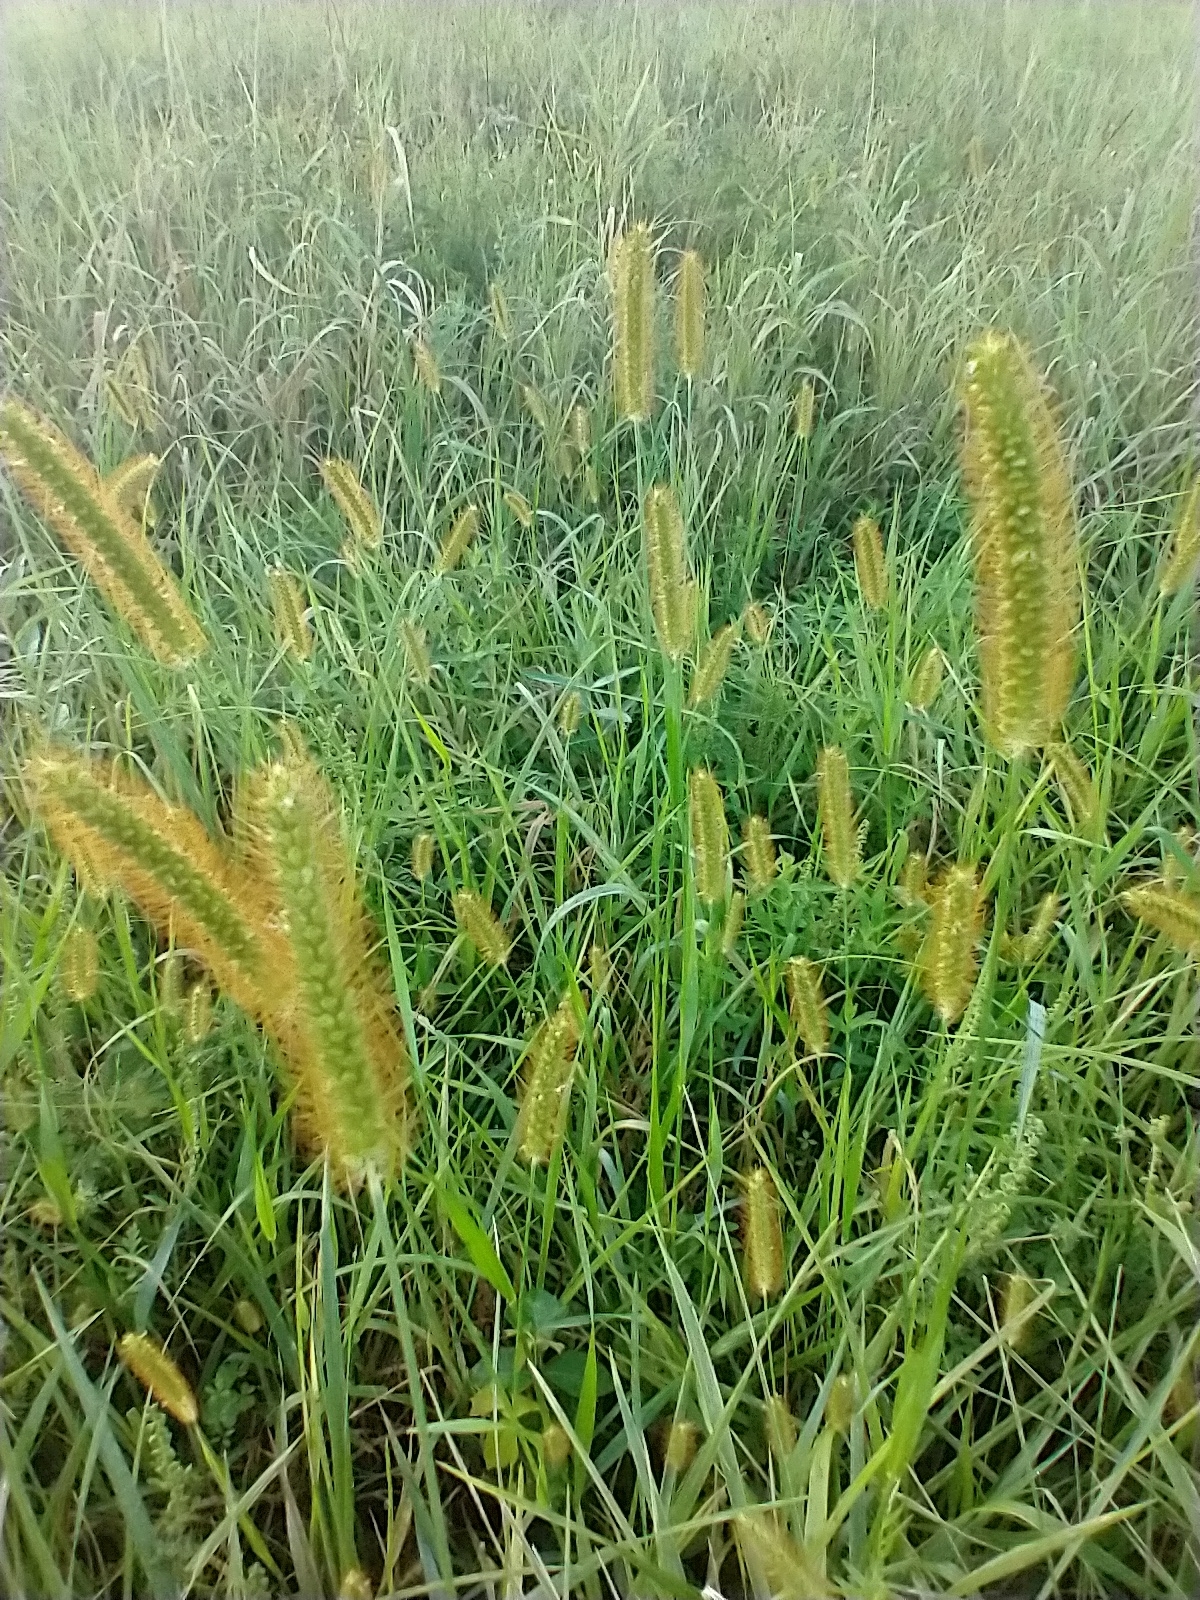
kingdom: Plantae
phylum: Tracheophyta
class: Liliopsida
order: Poales
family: Poaceae
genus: Setaria
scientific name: Setaria pumila
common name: Yellow bristle-grass
